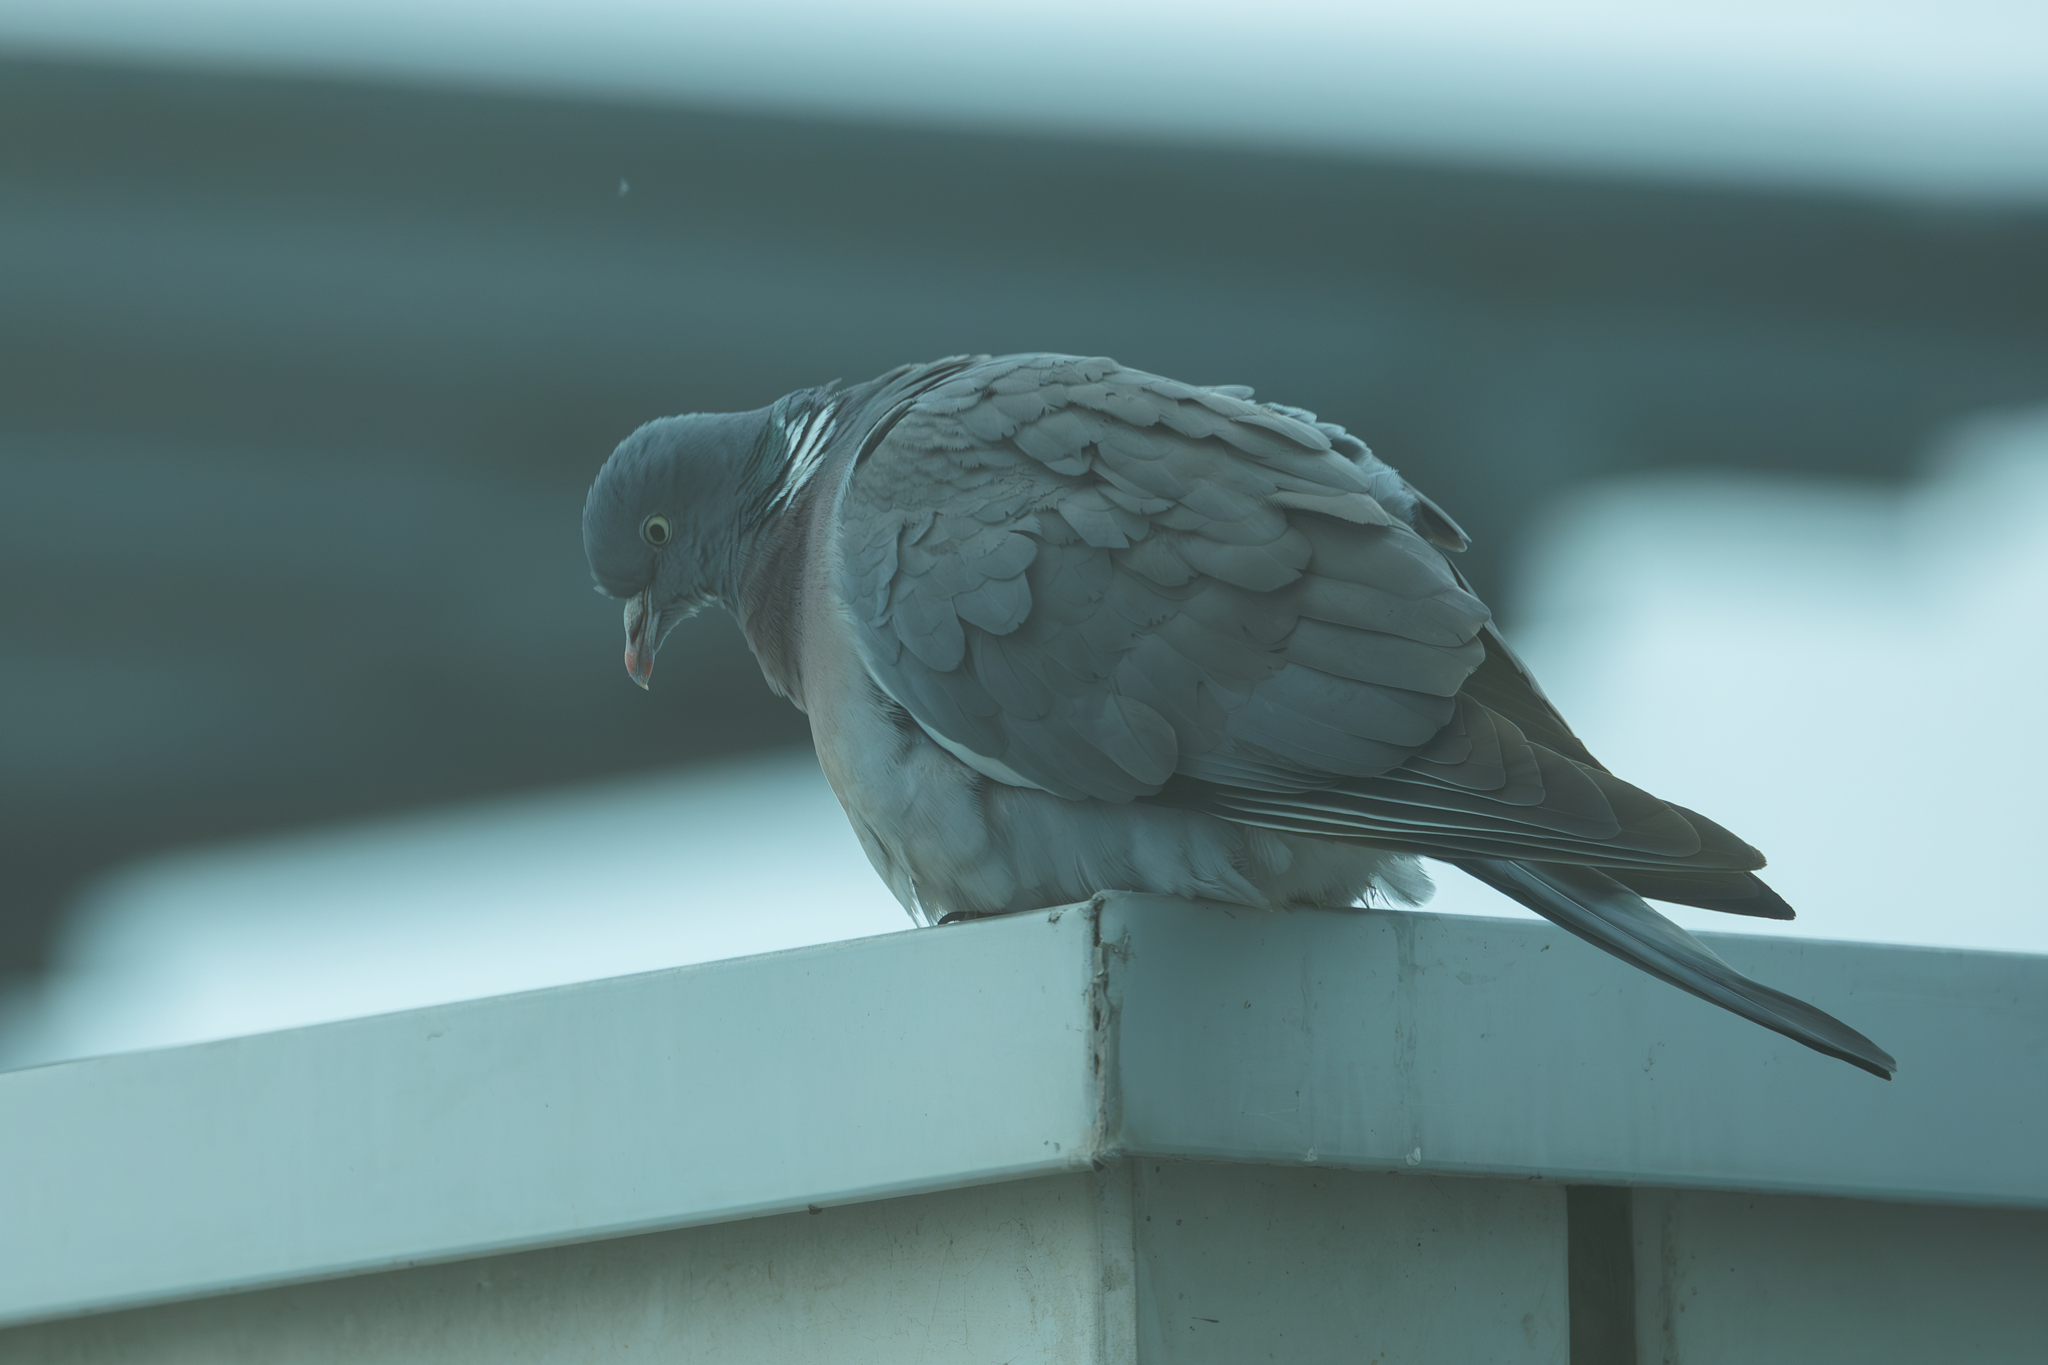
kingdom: Animalia
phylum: Chordata
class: Aves
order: Columbiformes
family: Columbidae
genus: Columba
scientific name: Columba palumbus
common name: Common wood pigeon
